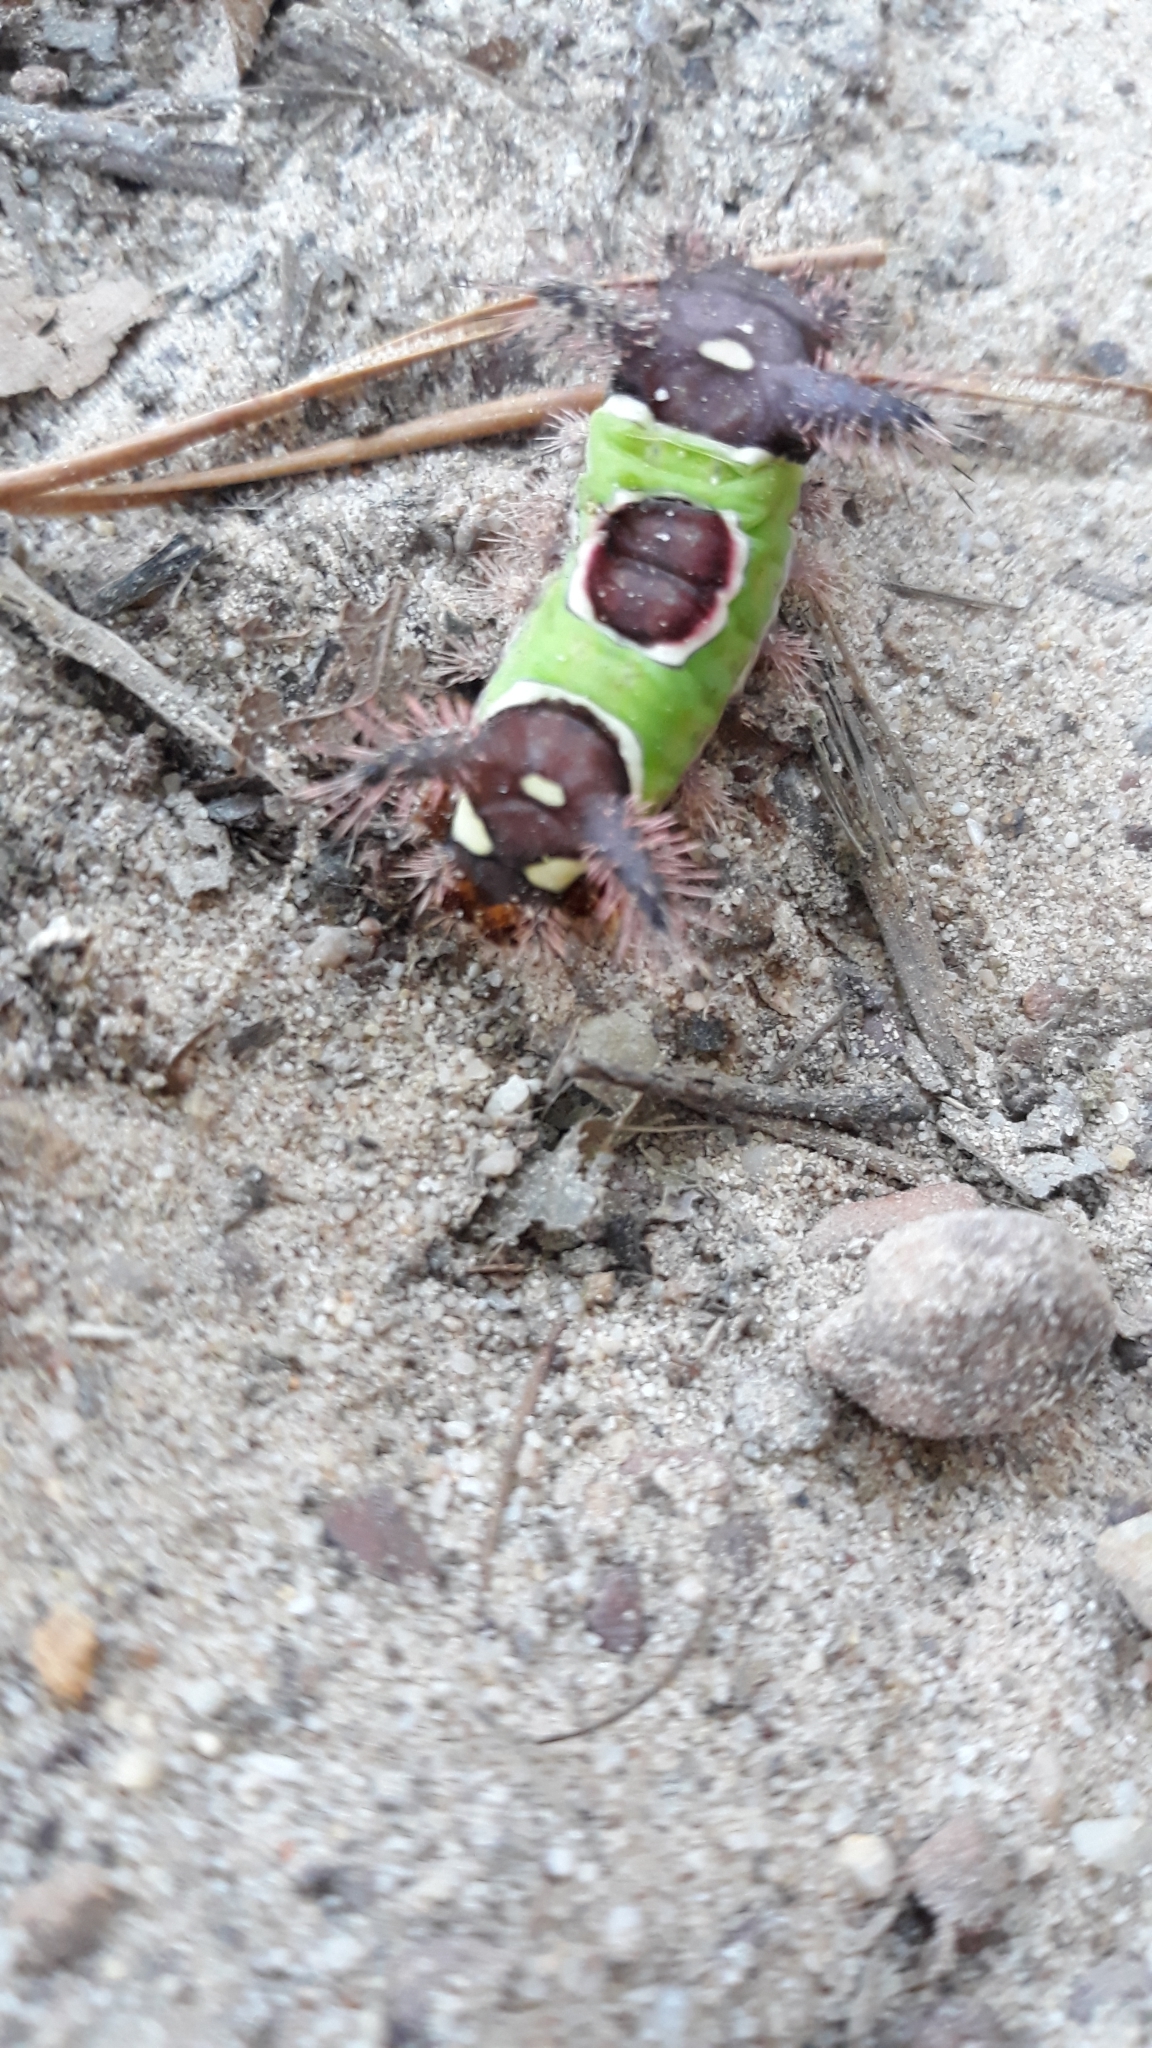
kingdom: Animalia
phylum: Arthropoda
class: Insecta
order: Lepidoptera
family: Limacodidae
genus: Acharia
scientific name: Acharia stimulea
